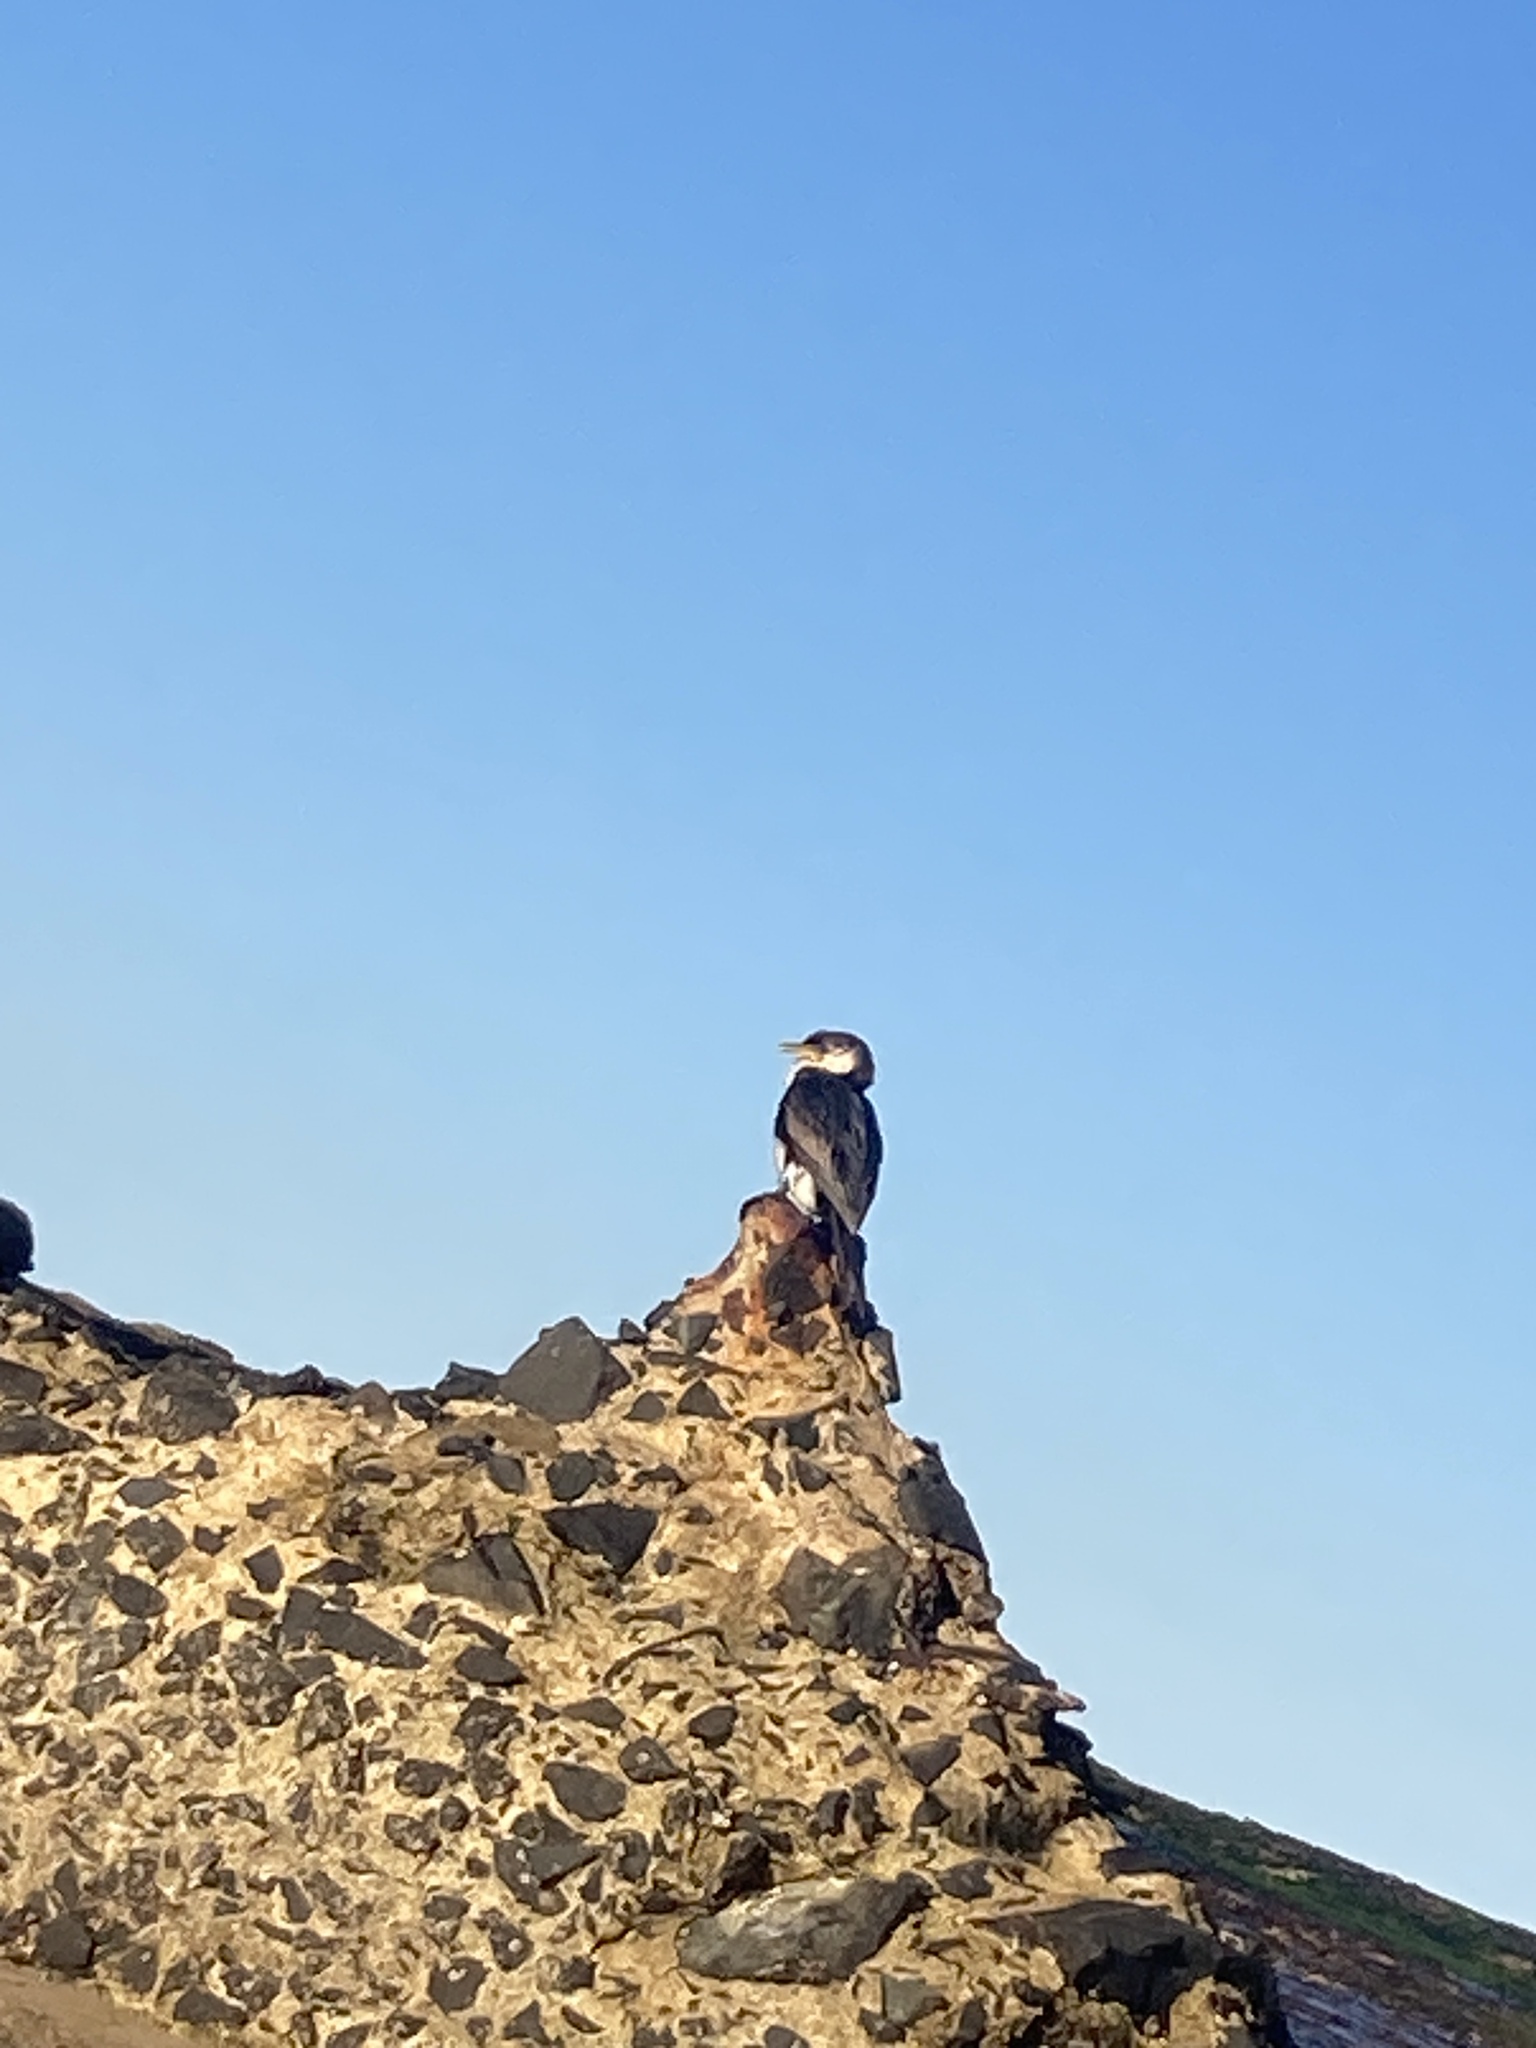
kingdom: Animalia
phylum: Chordata
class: Aves
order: Suliformes
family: Phalacrocoracidae
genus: Microcarbo
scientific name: Microcarbo melanoleucos
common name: Little pied cormorant
